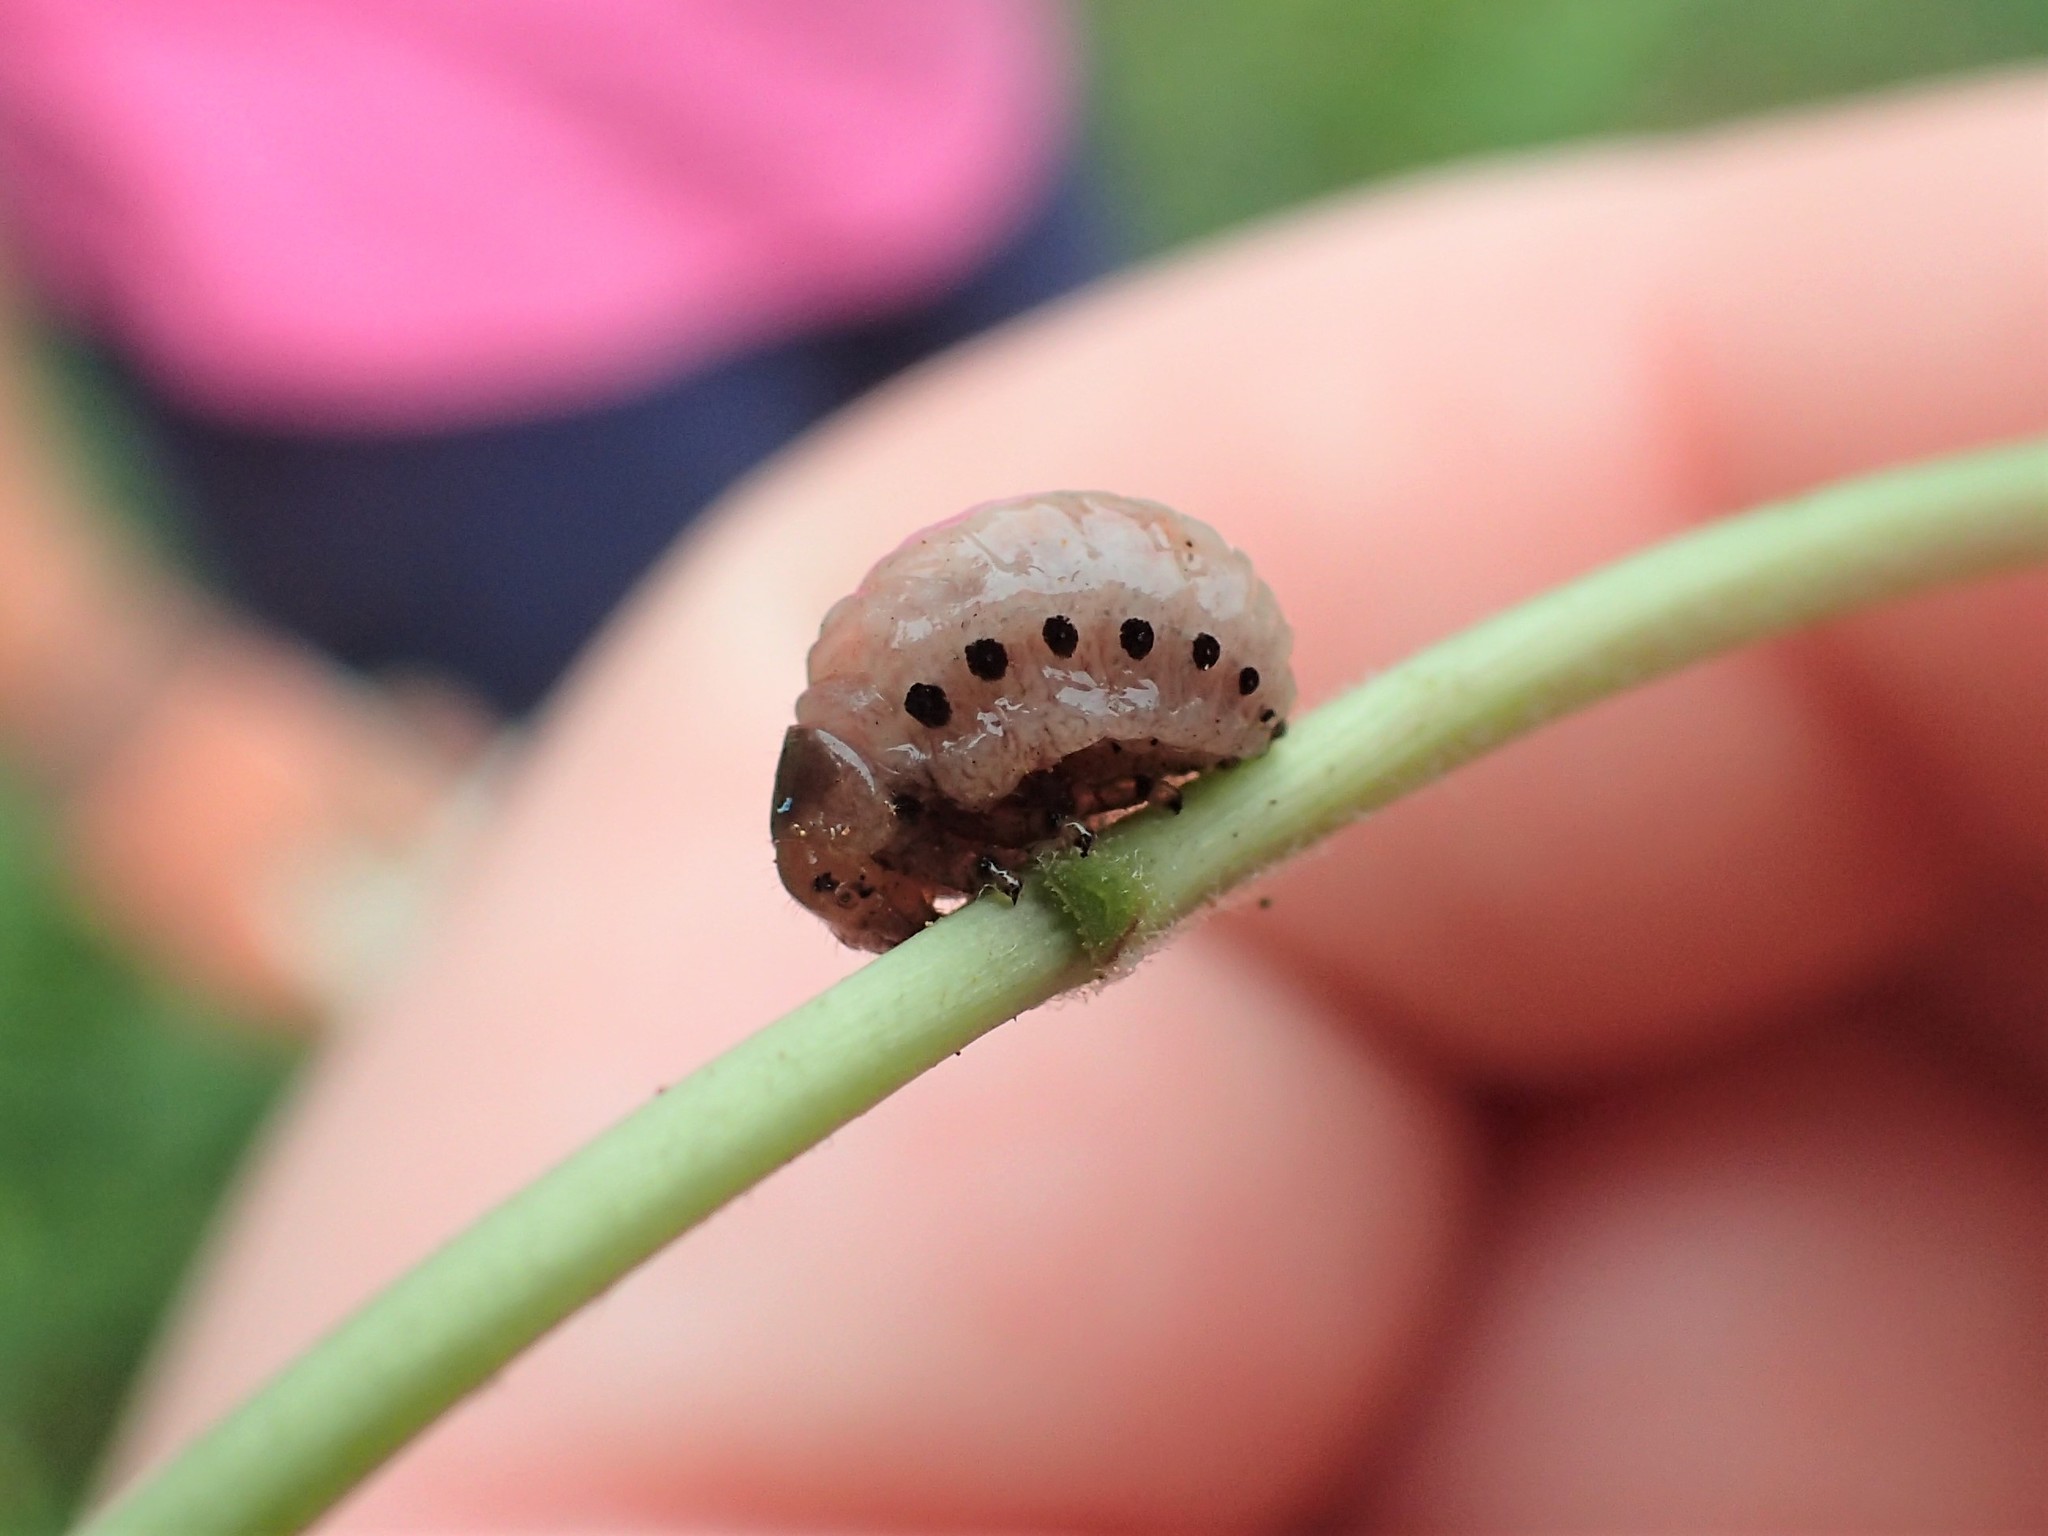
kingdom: Animalia
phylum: Arthropoda
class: Insecta
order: Coleoptera
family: Chrysomelidae
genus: Labidomera
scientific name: Labidomera clivicollis
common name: Swamp milkweed leaf beetle
